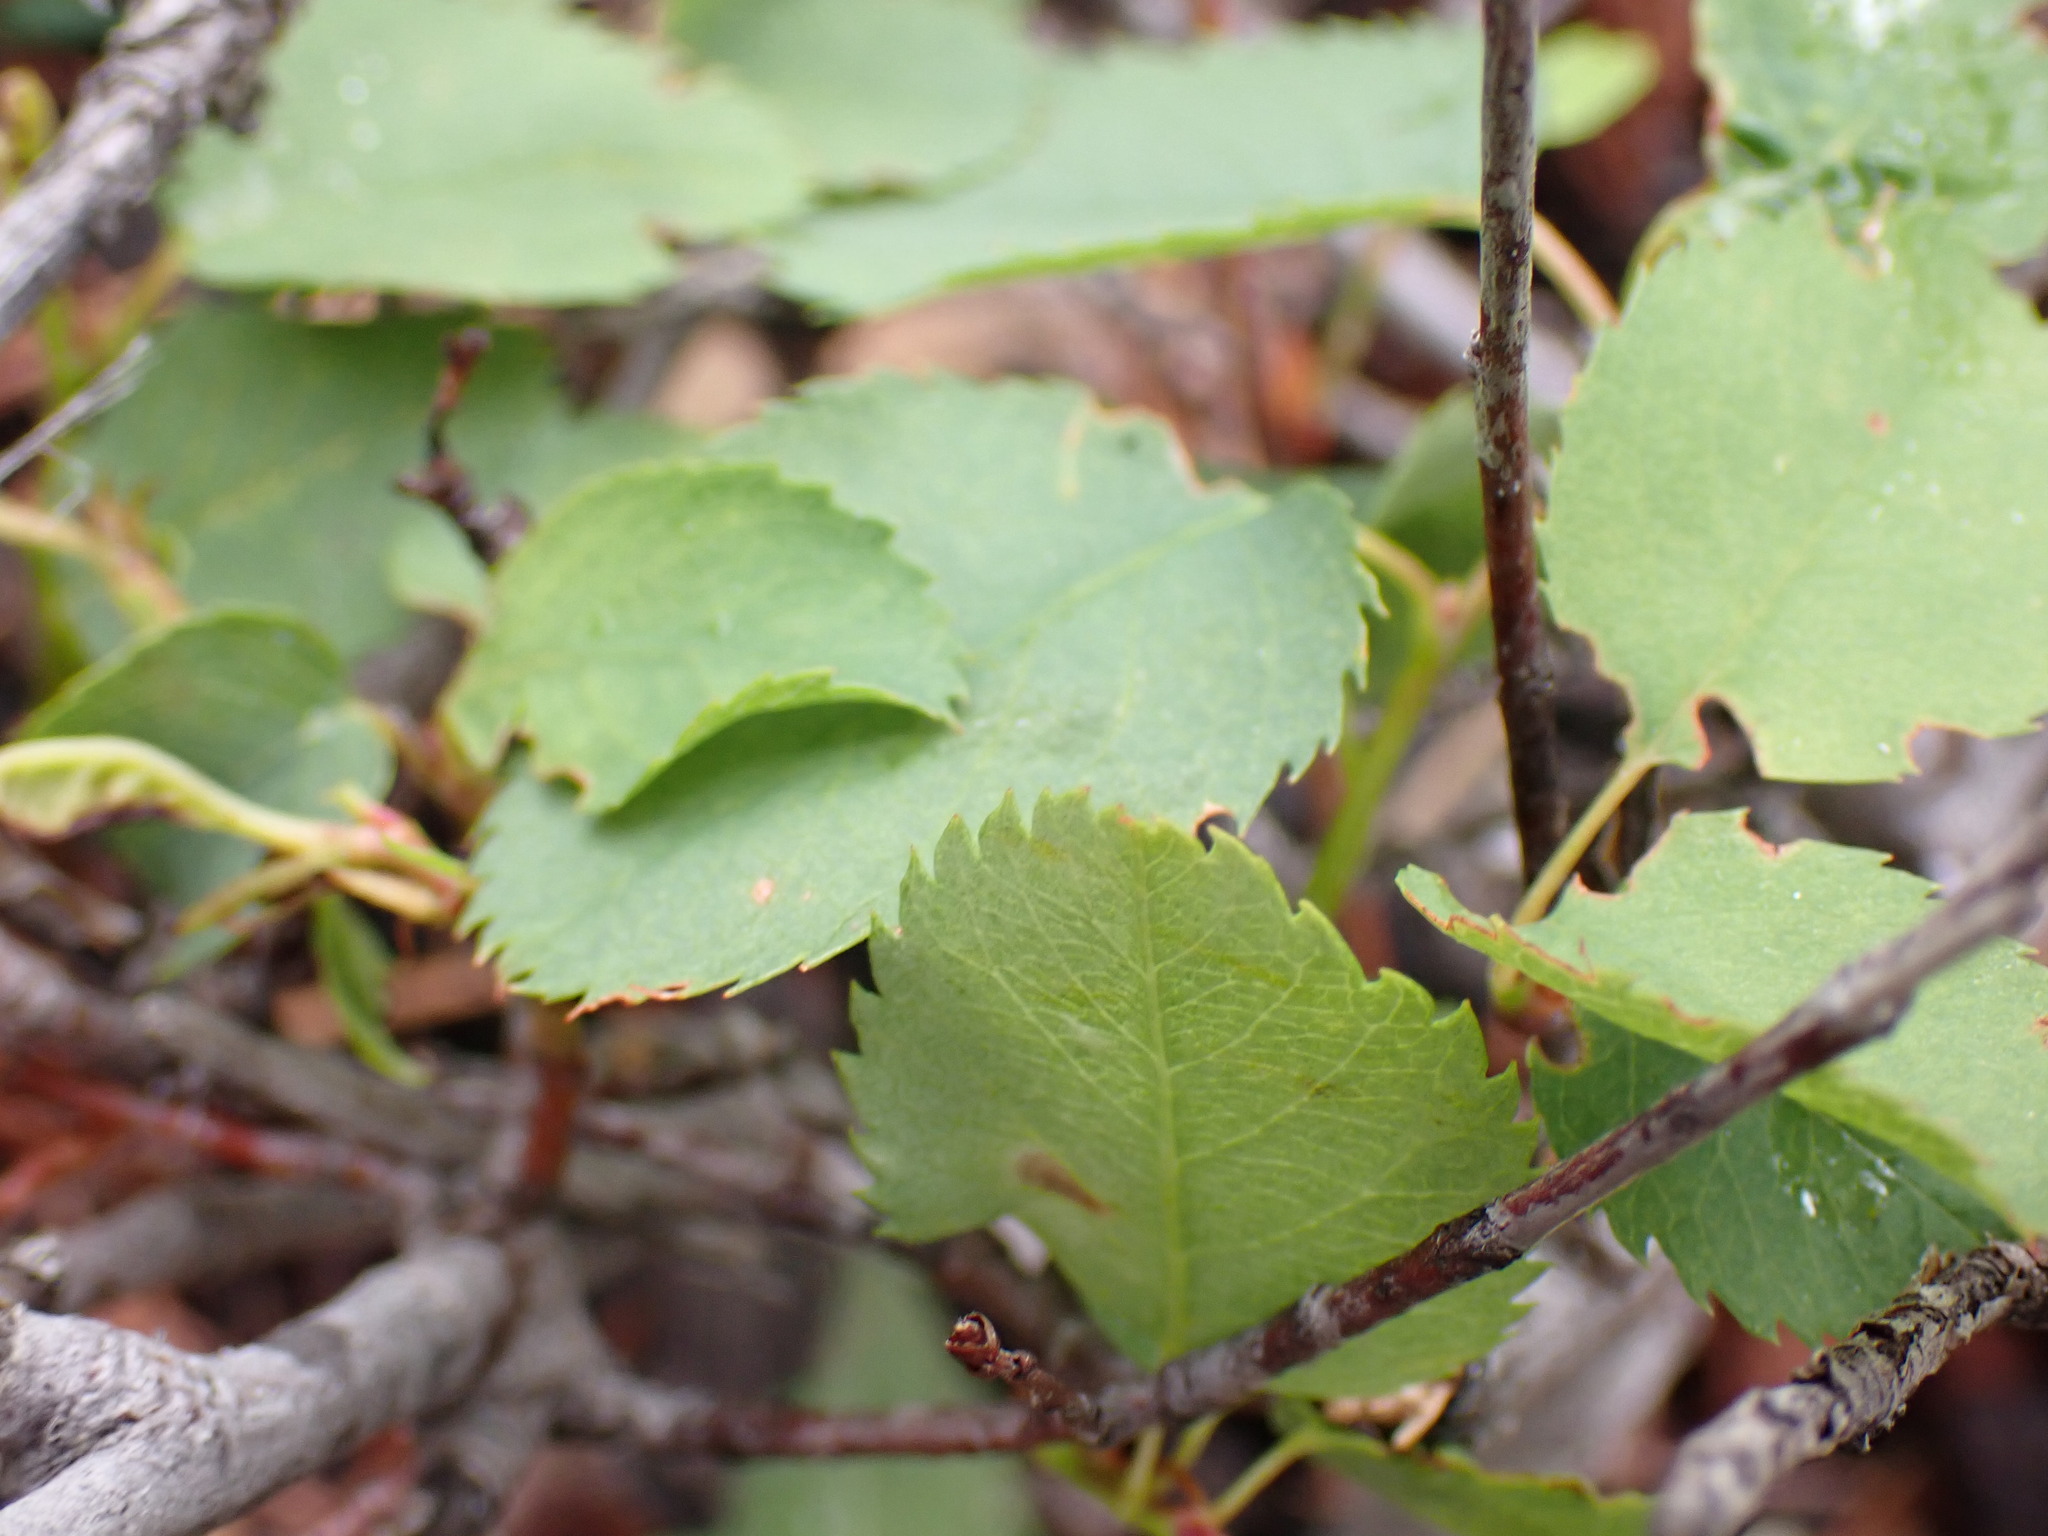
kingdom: Plantae
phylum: Tracheophyta
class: Magnoliopsida
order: Rosales
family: Rosaceae
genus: Amelanchier
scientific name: Amelanchier alnifolia
